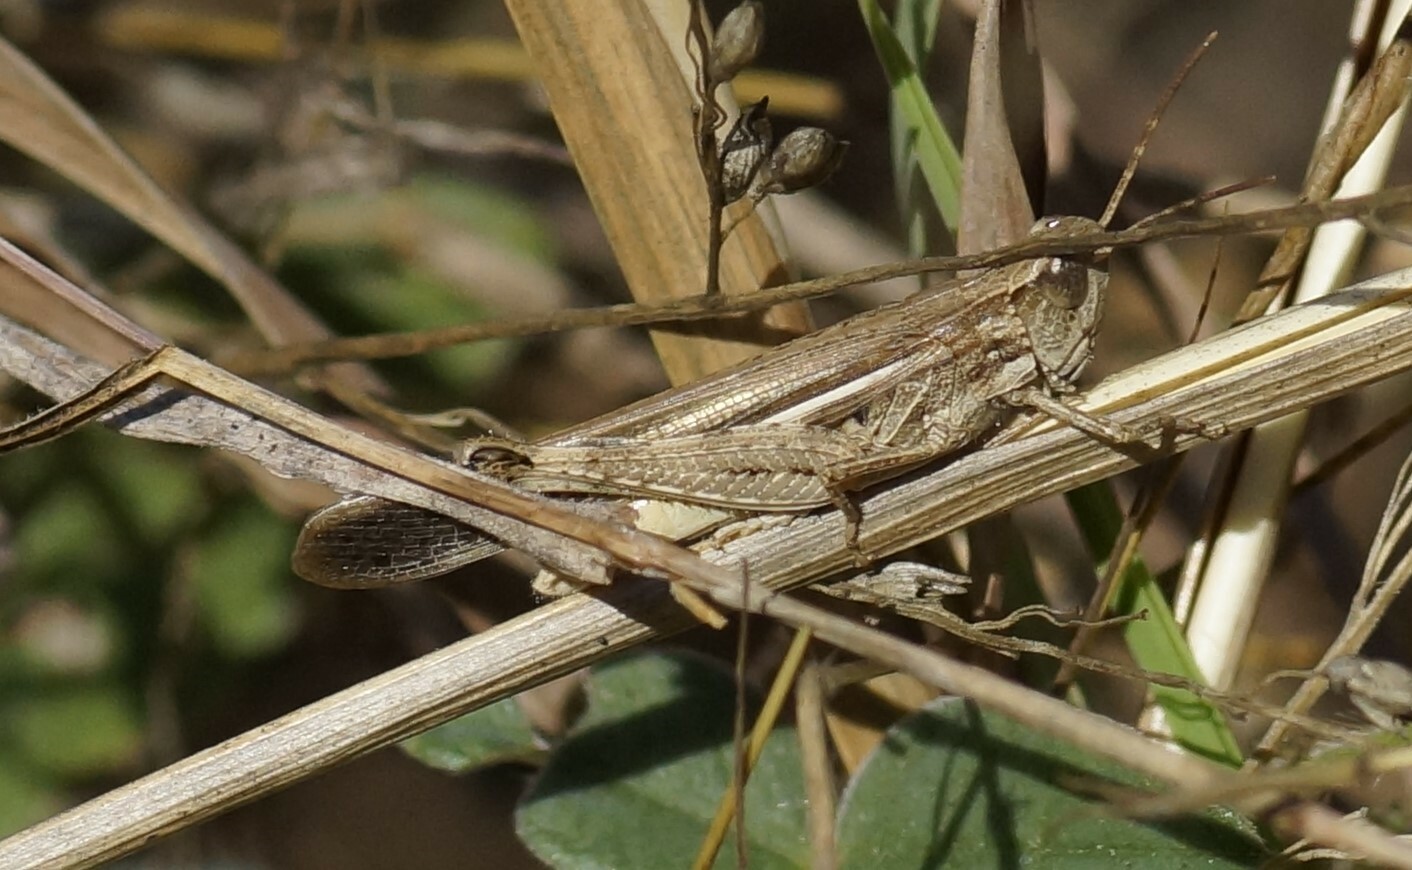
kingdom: Animalia
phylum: Arthropoda
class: Insecta
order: Orthoptera
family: Acrididae
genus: Aiolopus
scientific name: Aiolopus thalassinus
